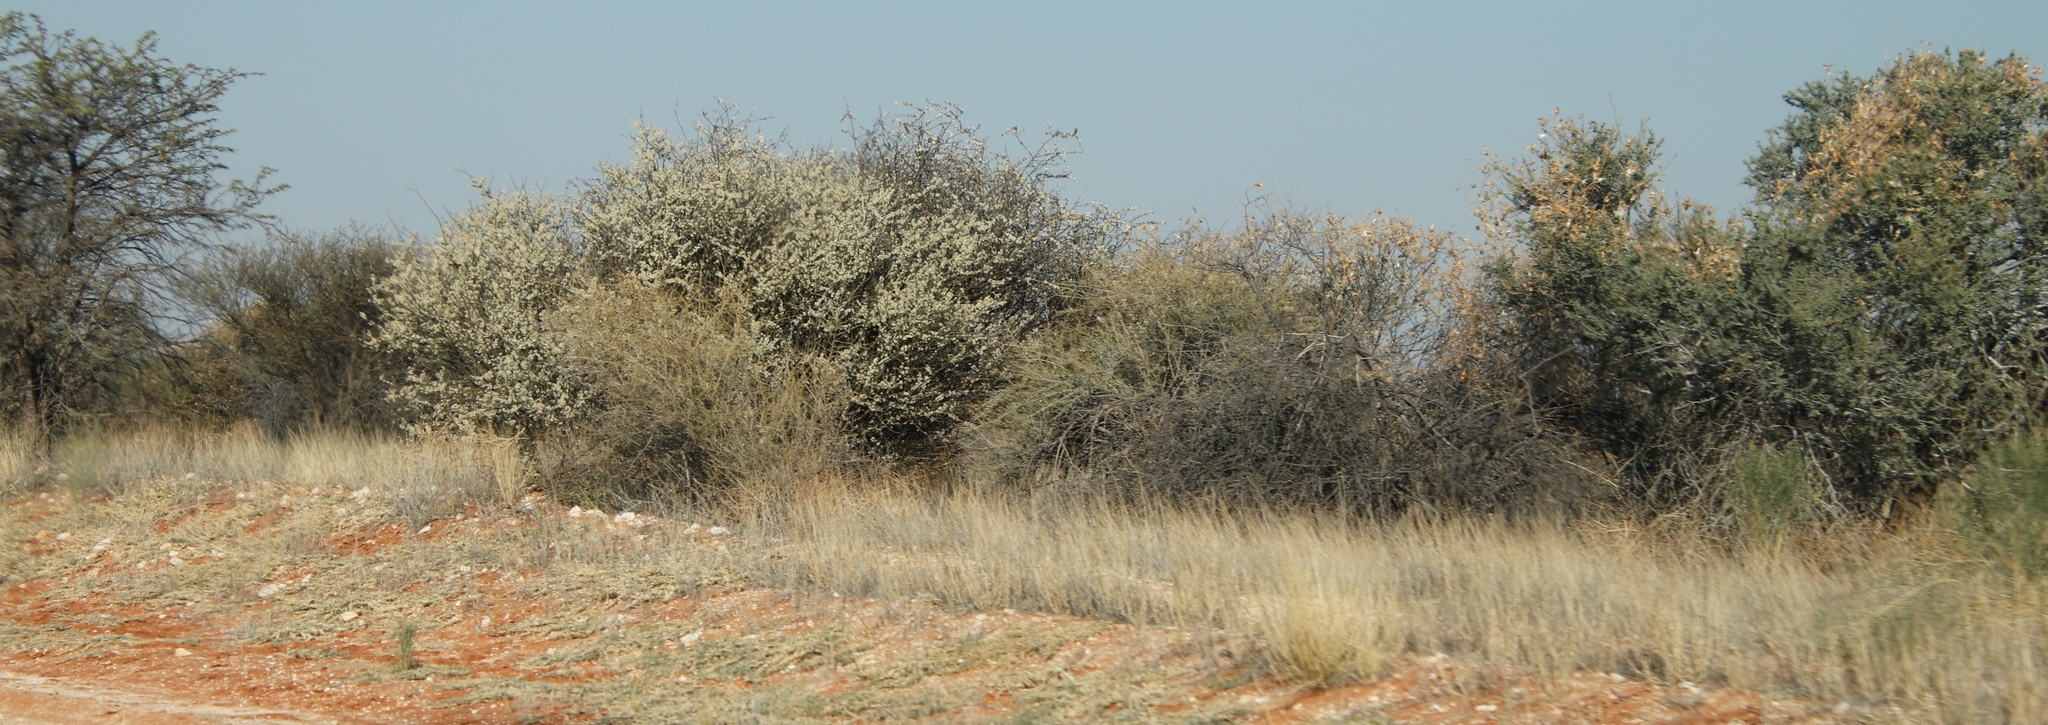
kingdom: Plantae
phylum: Tracheophyta
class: Magnoliopsida
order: Fabales
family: Fabaceae
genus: Senegalia
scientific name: Senegalia mellifera
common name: Hookthorn
